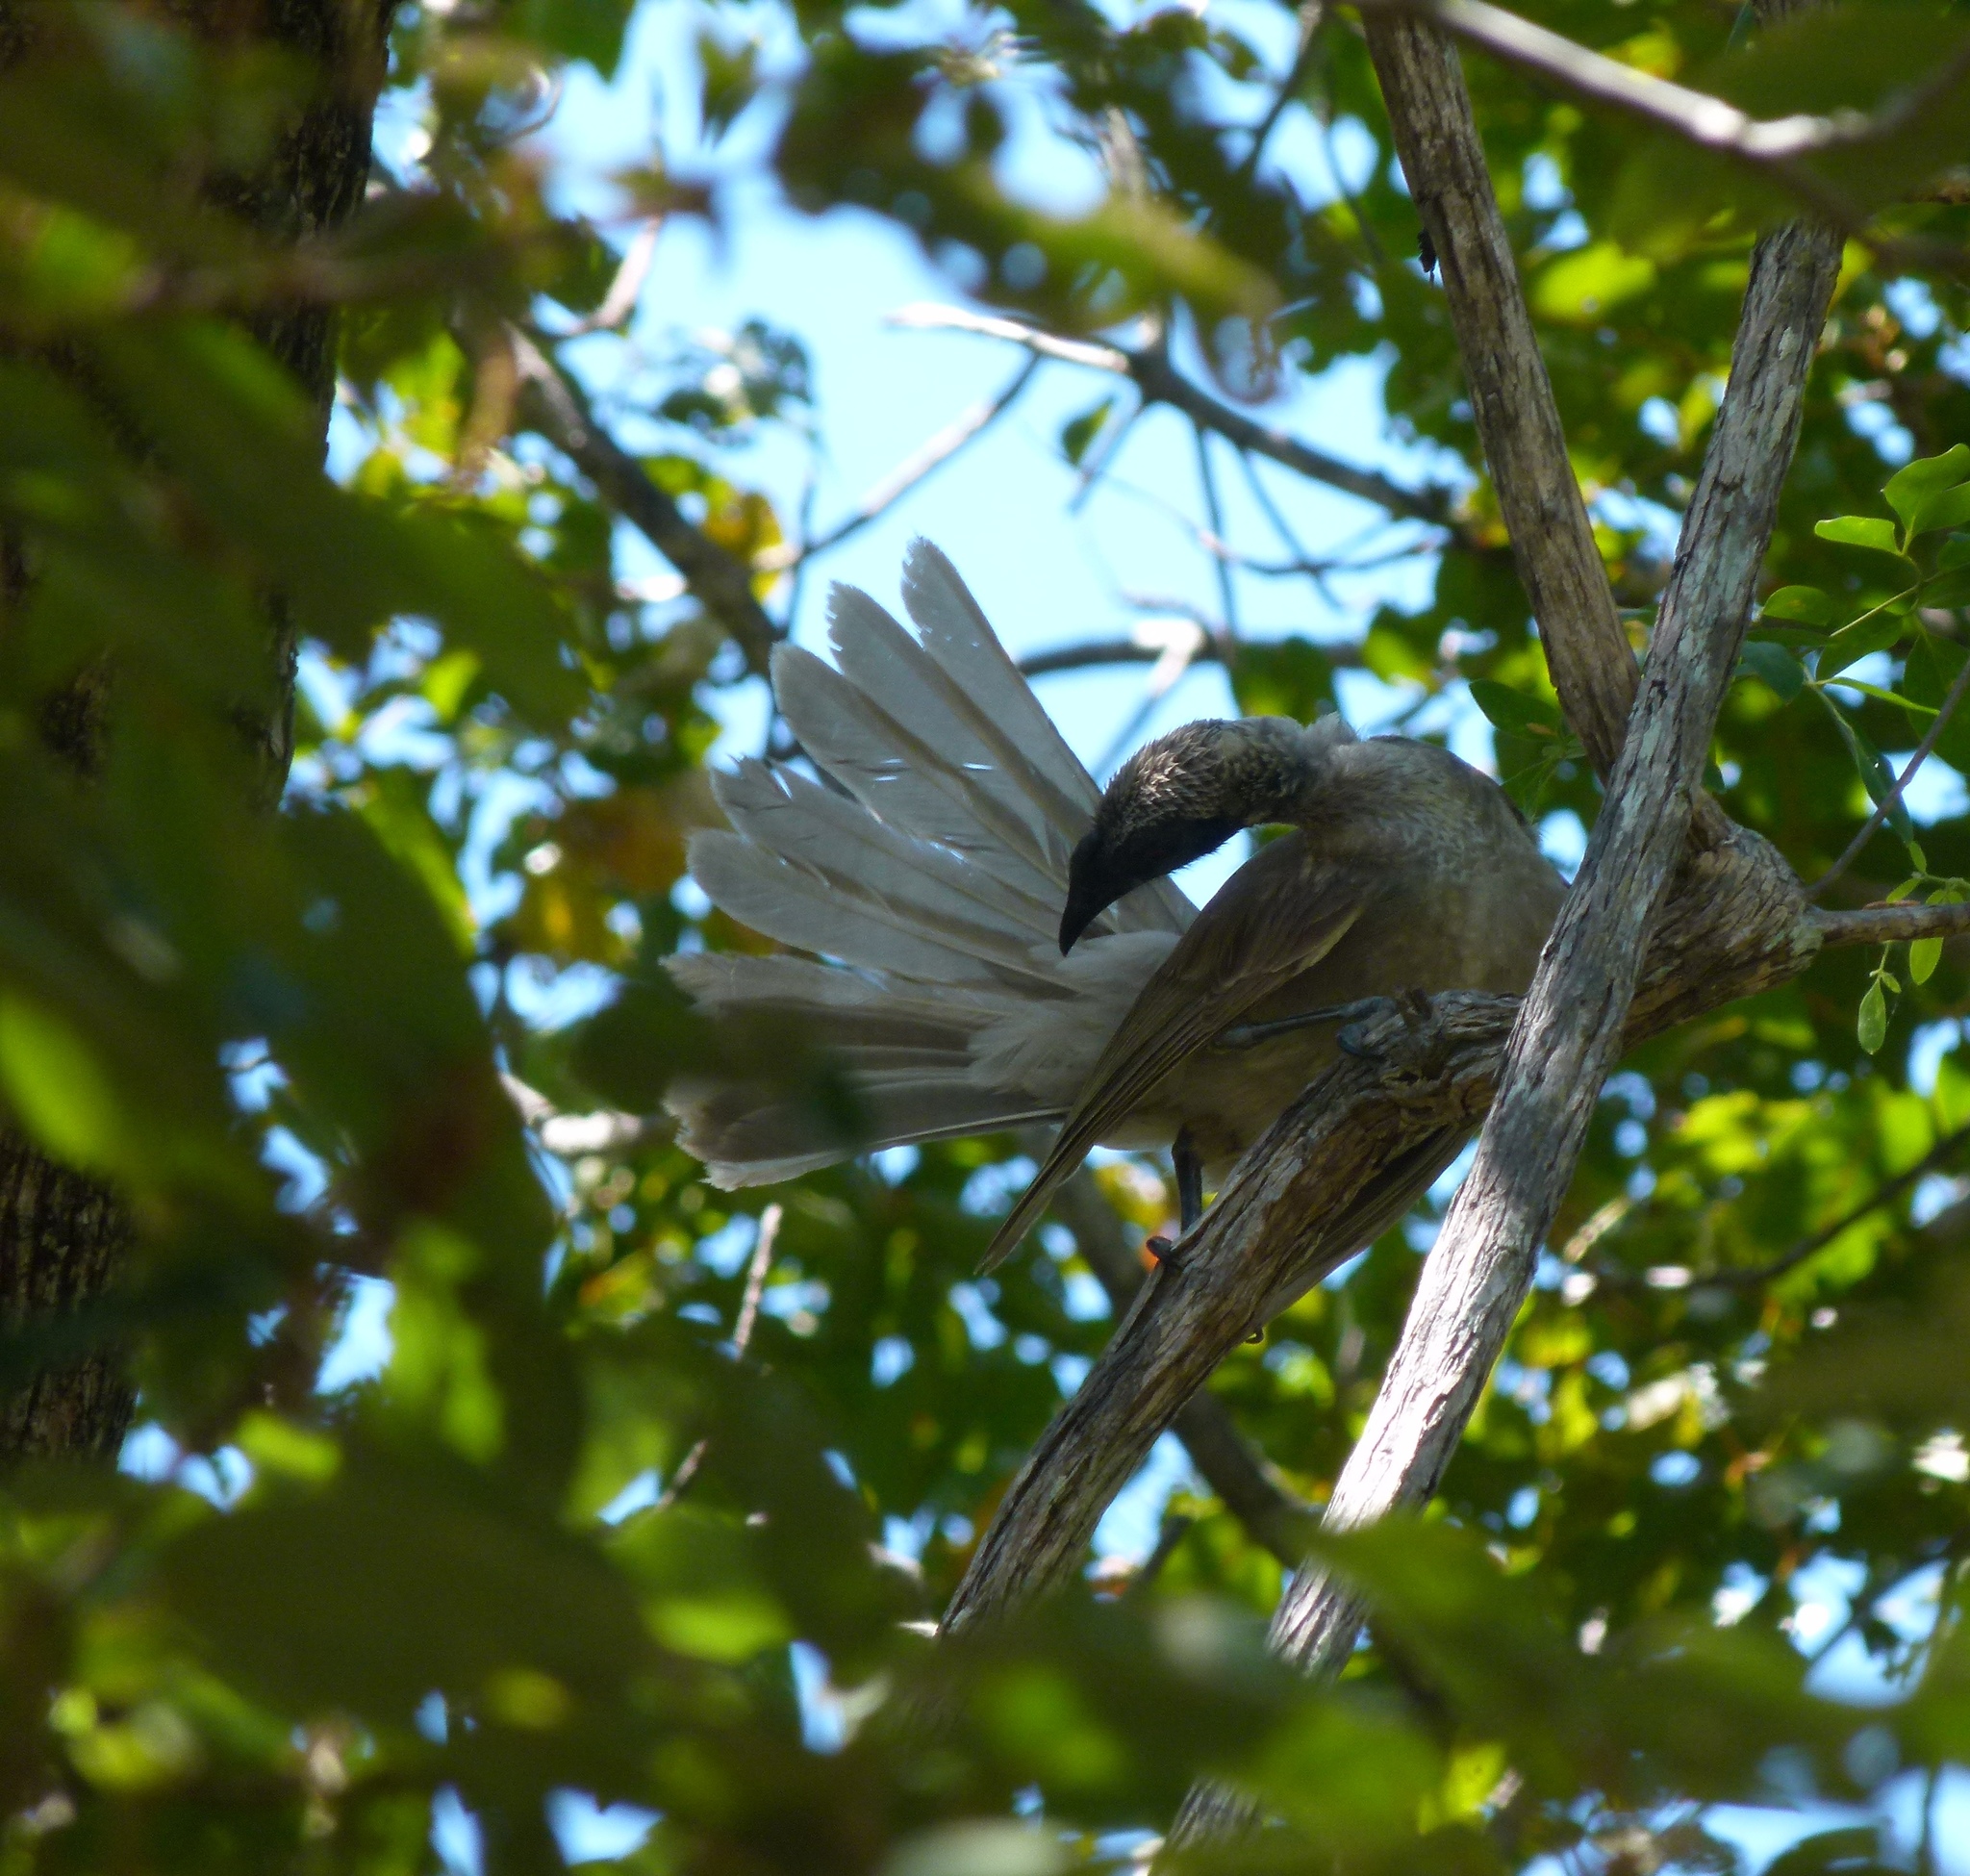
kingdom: Animalia
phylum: Chordata
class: Aves
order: Passeriformes
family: Meliphagidae
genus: Philemon
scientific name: Philemon yorki
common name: Hornbill friarbird
